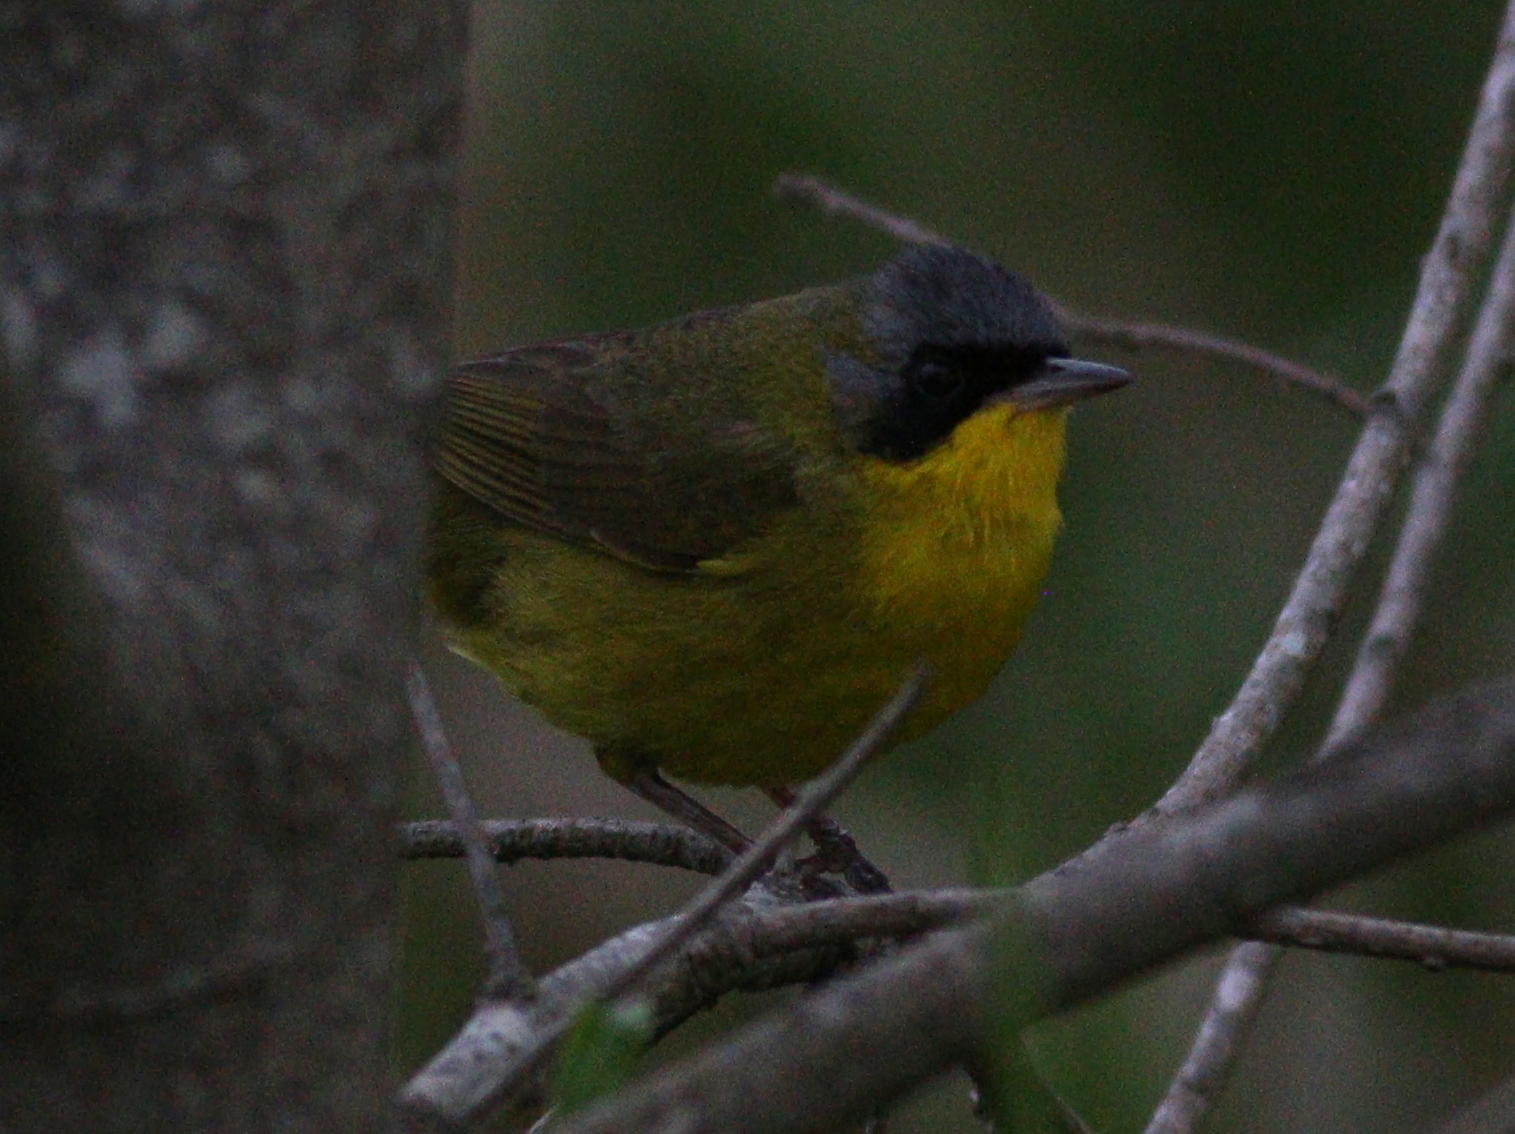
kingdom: Animalia
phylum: Chordata
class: Aves
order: Passeriformes
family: Parulidae
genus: Geothlypis
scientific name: Geothlypis velata
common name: Southern yellowthroat
